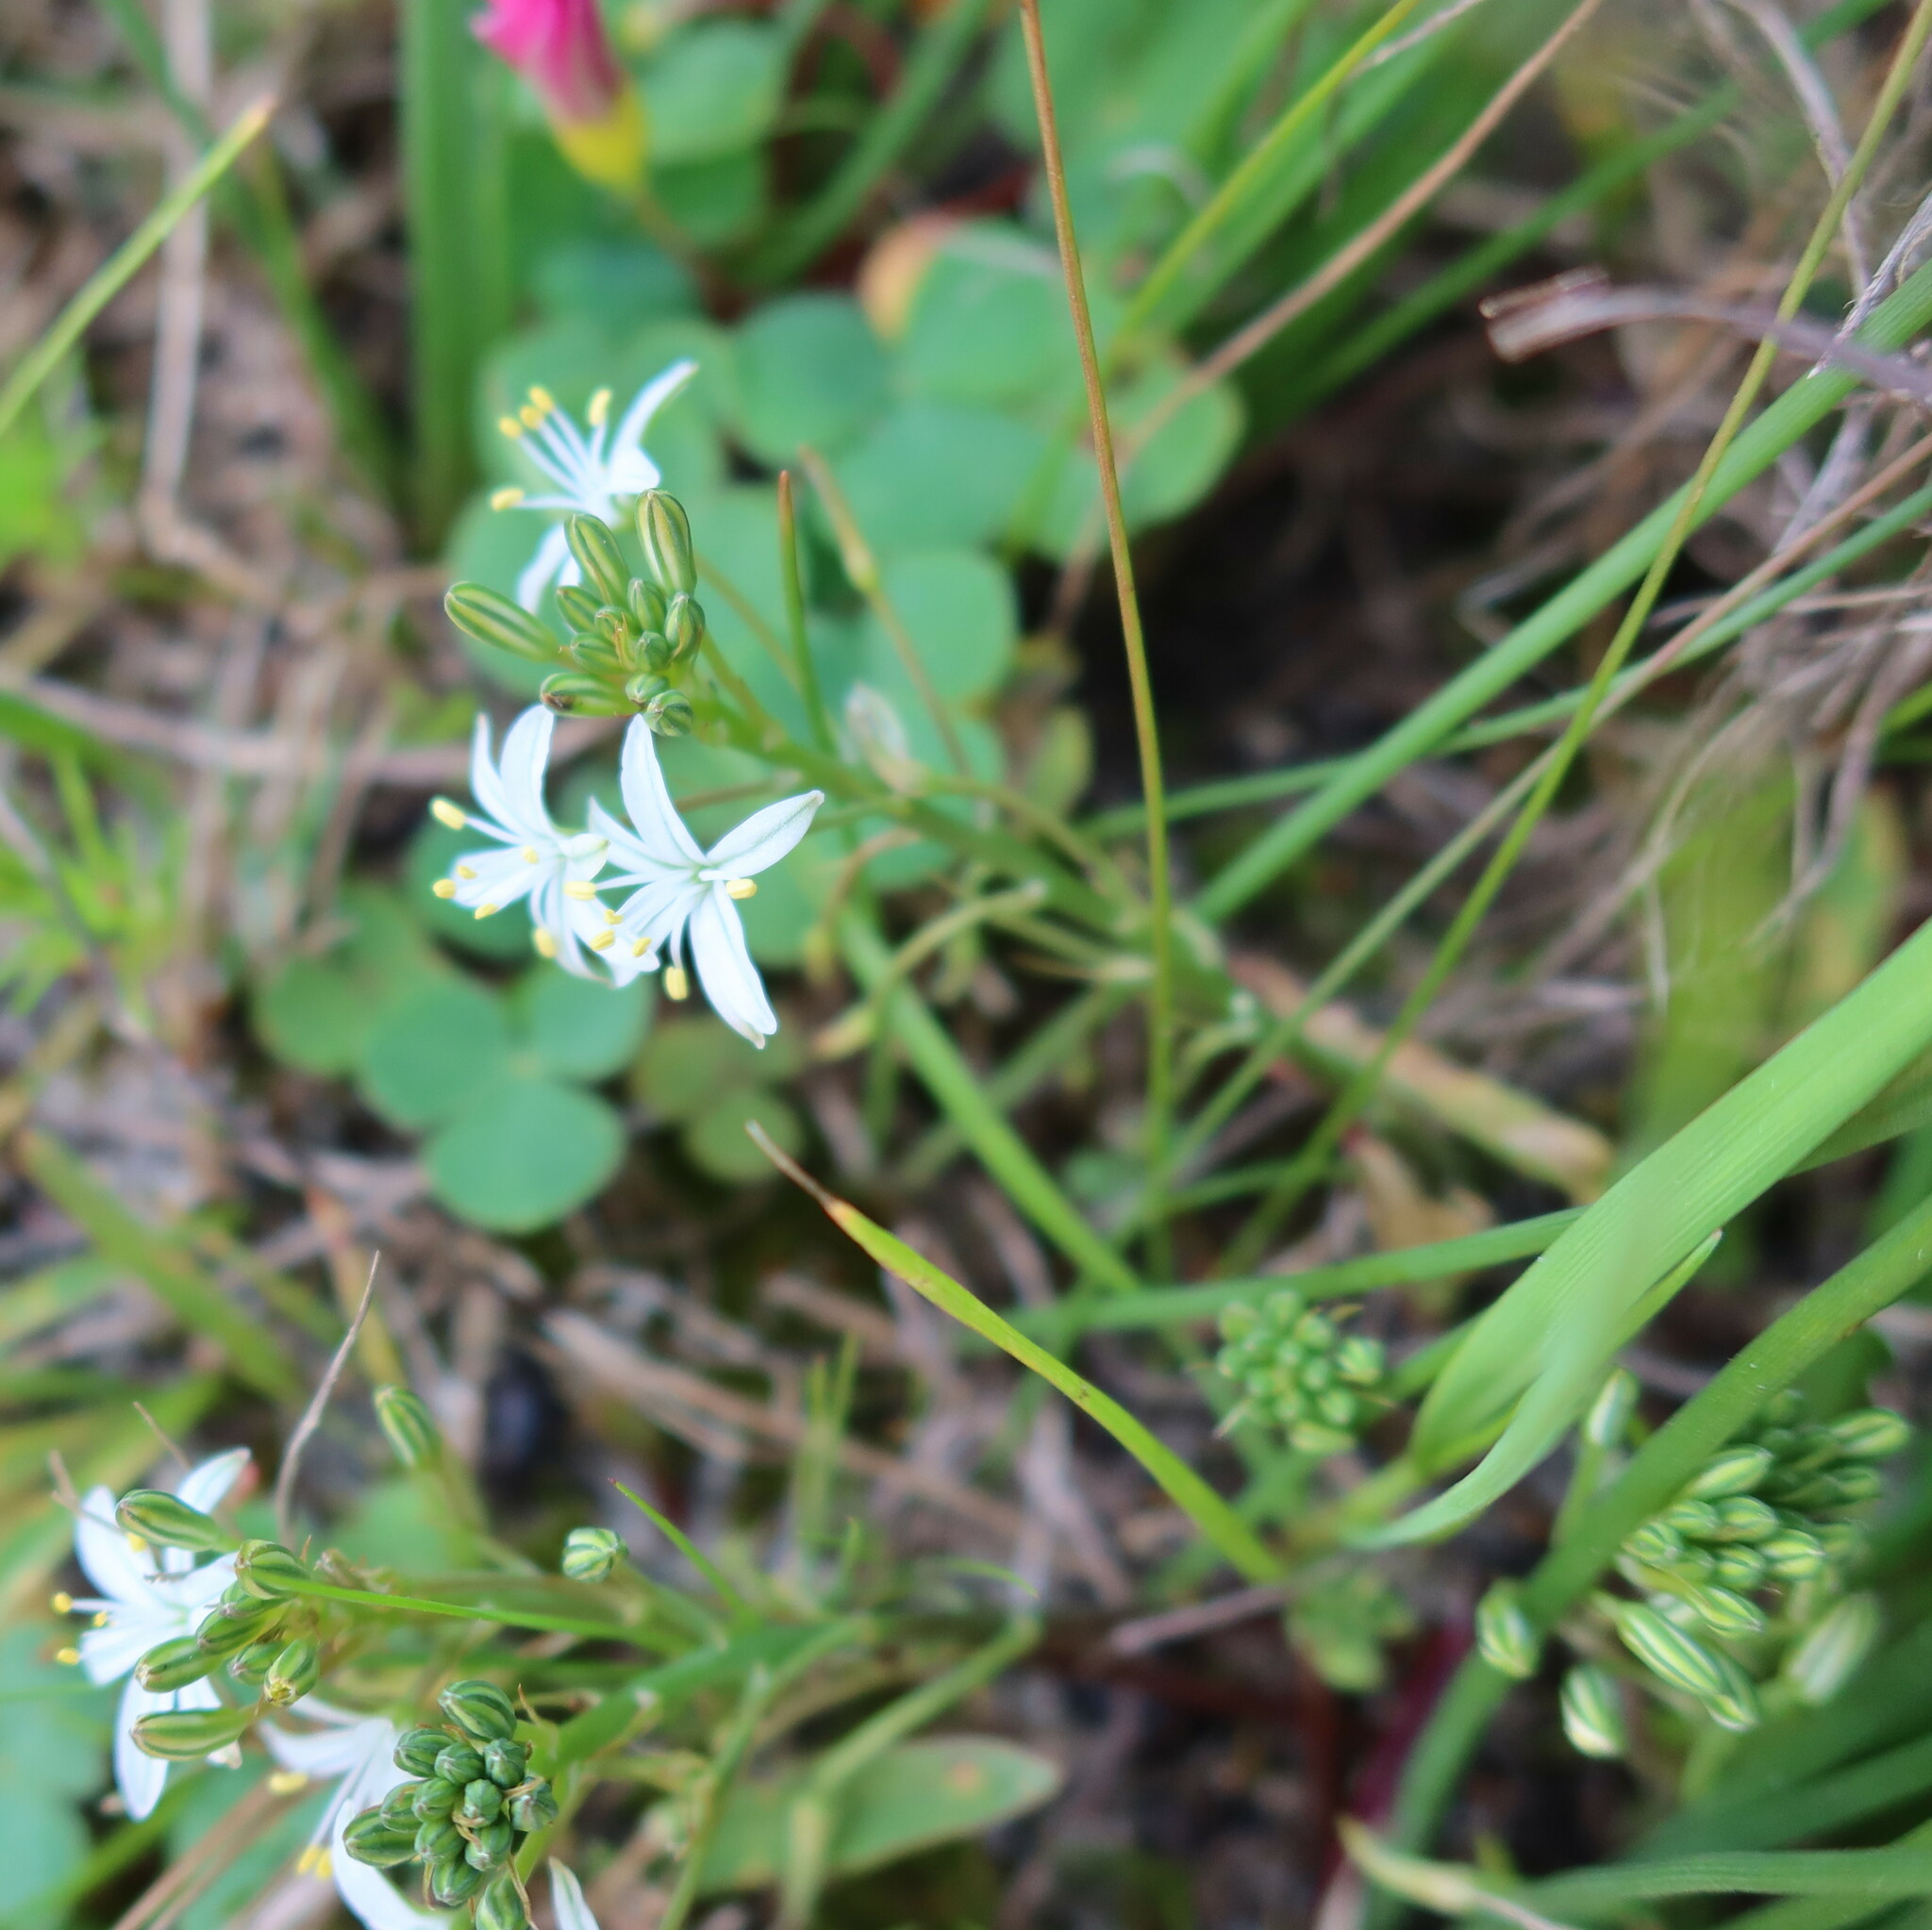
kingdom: Plantae
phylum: Tracheophyta
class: Liliopsida
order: Asparagales
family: Asphodelaceae
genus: Trachyandra
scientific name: Trachyandra chlamydophylla
